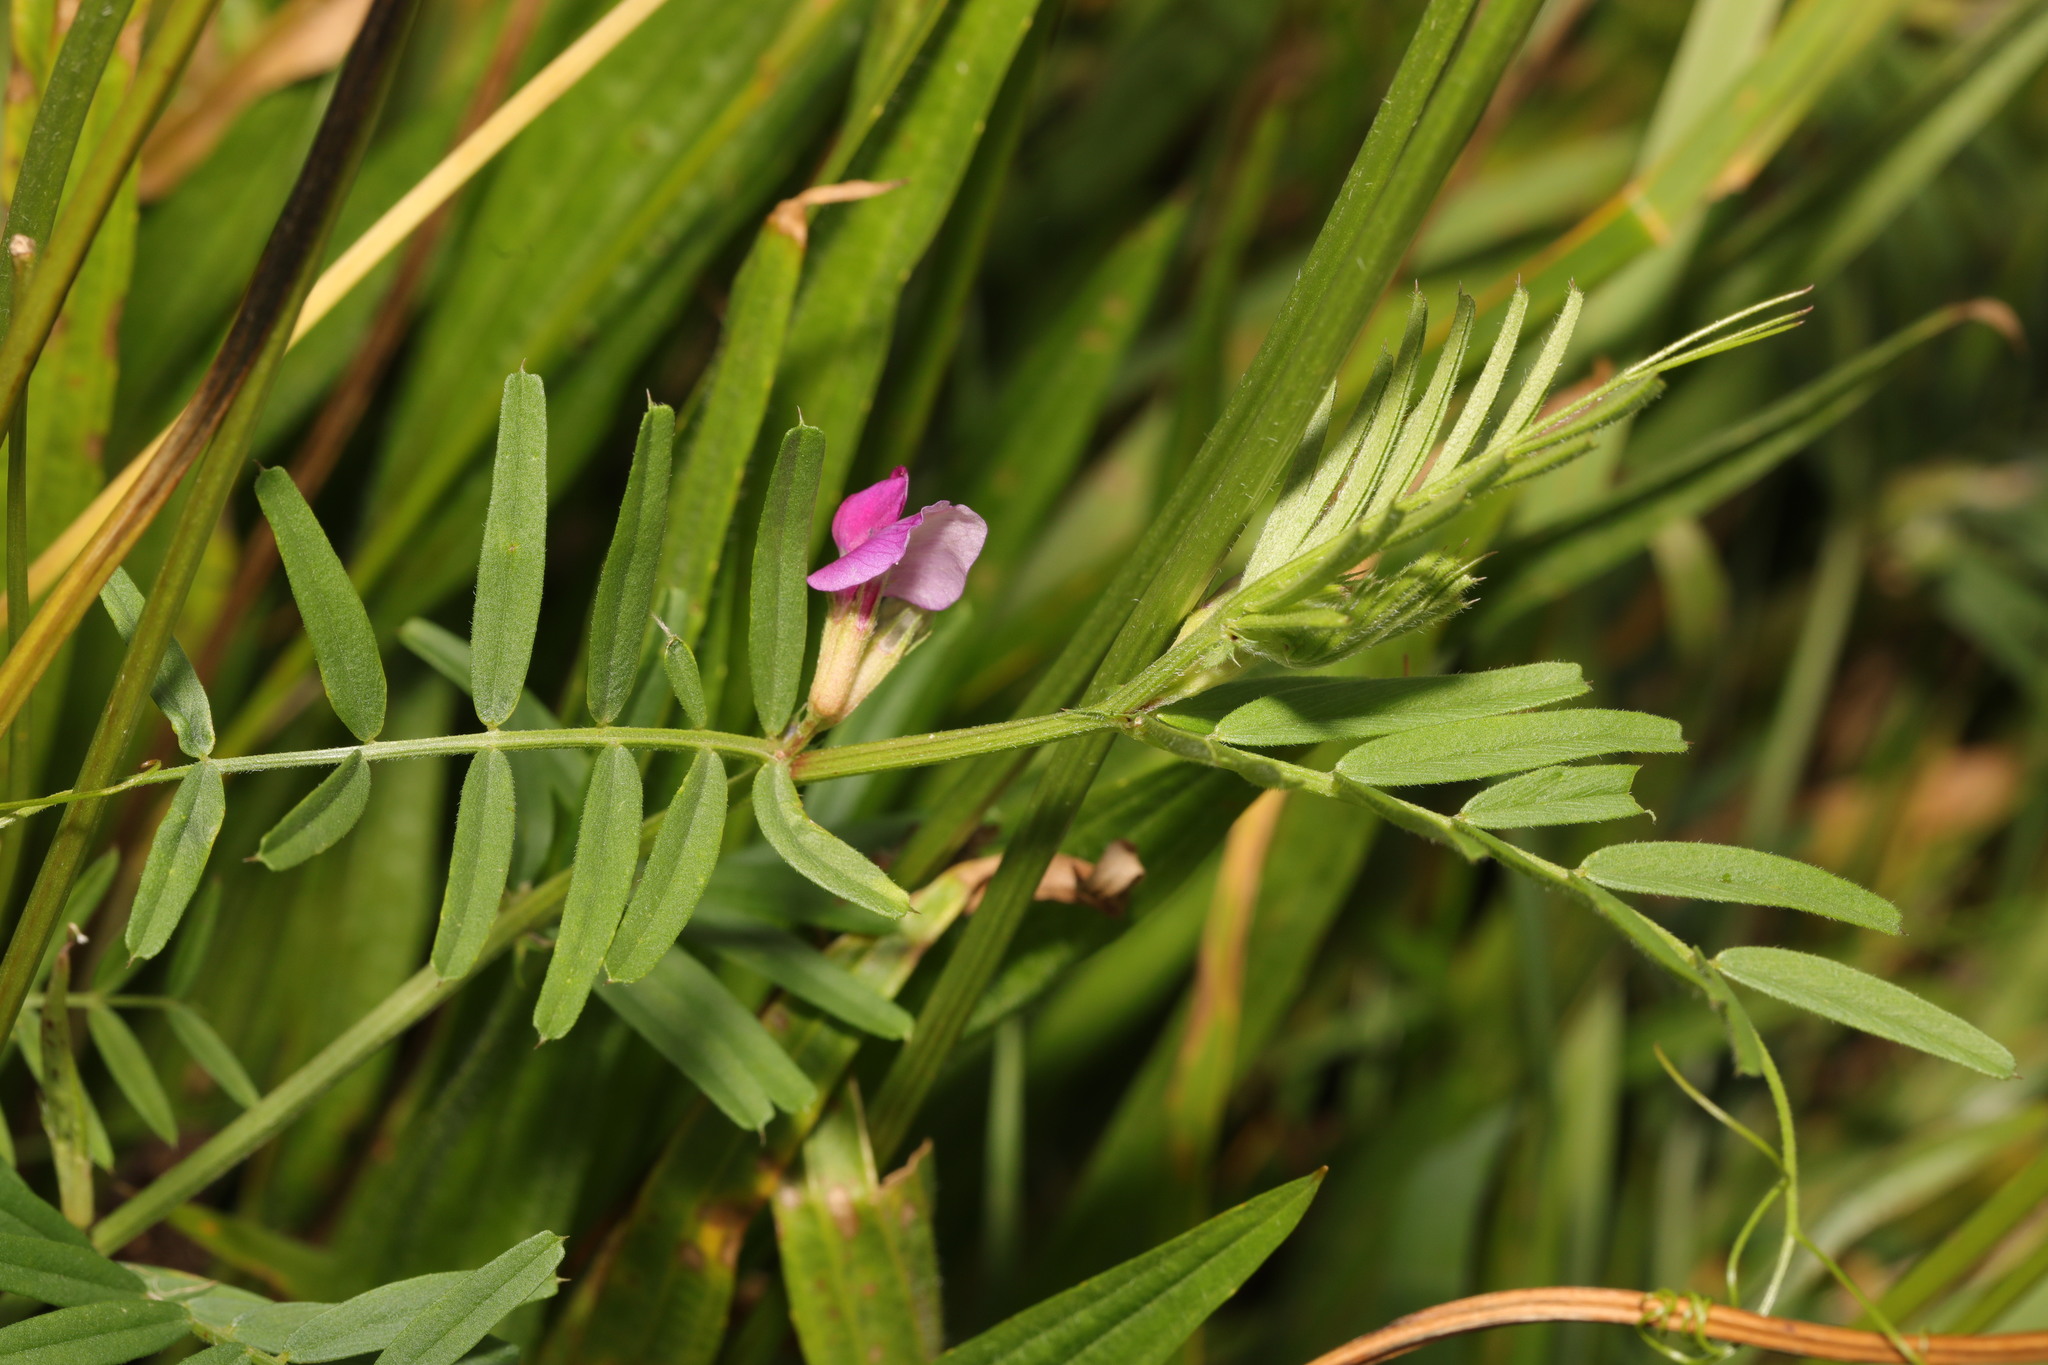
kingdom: Plantae
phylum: Tracheophyta
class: Magnoliopsida
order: Fabales
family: Fabaceae
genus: Vicia
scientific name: Vicia sativa
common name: Garden vetch
